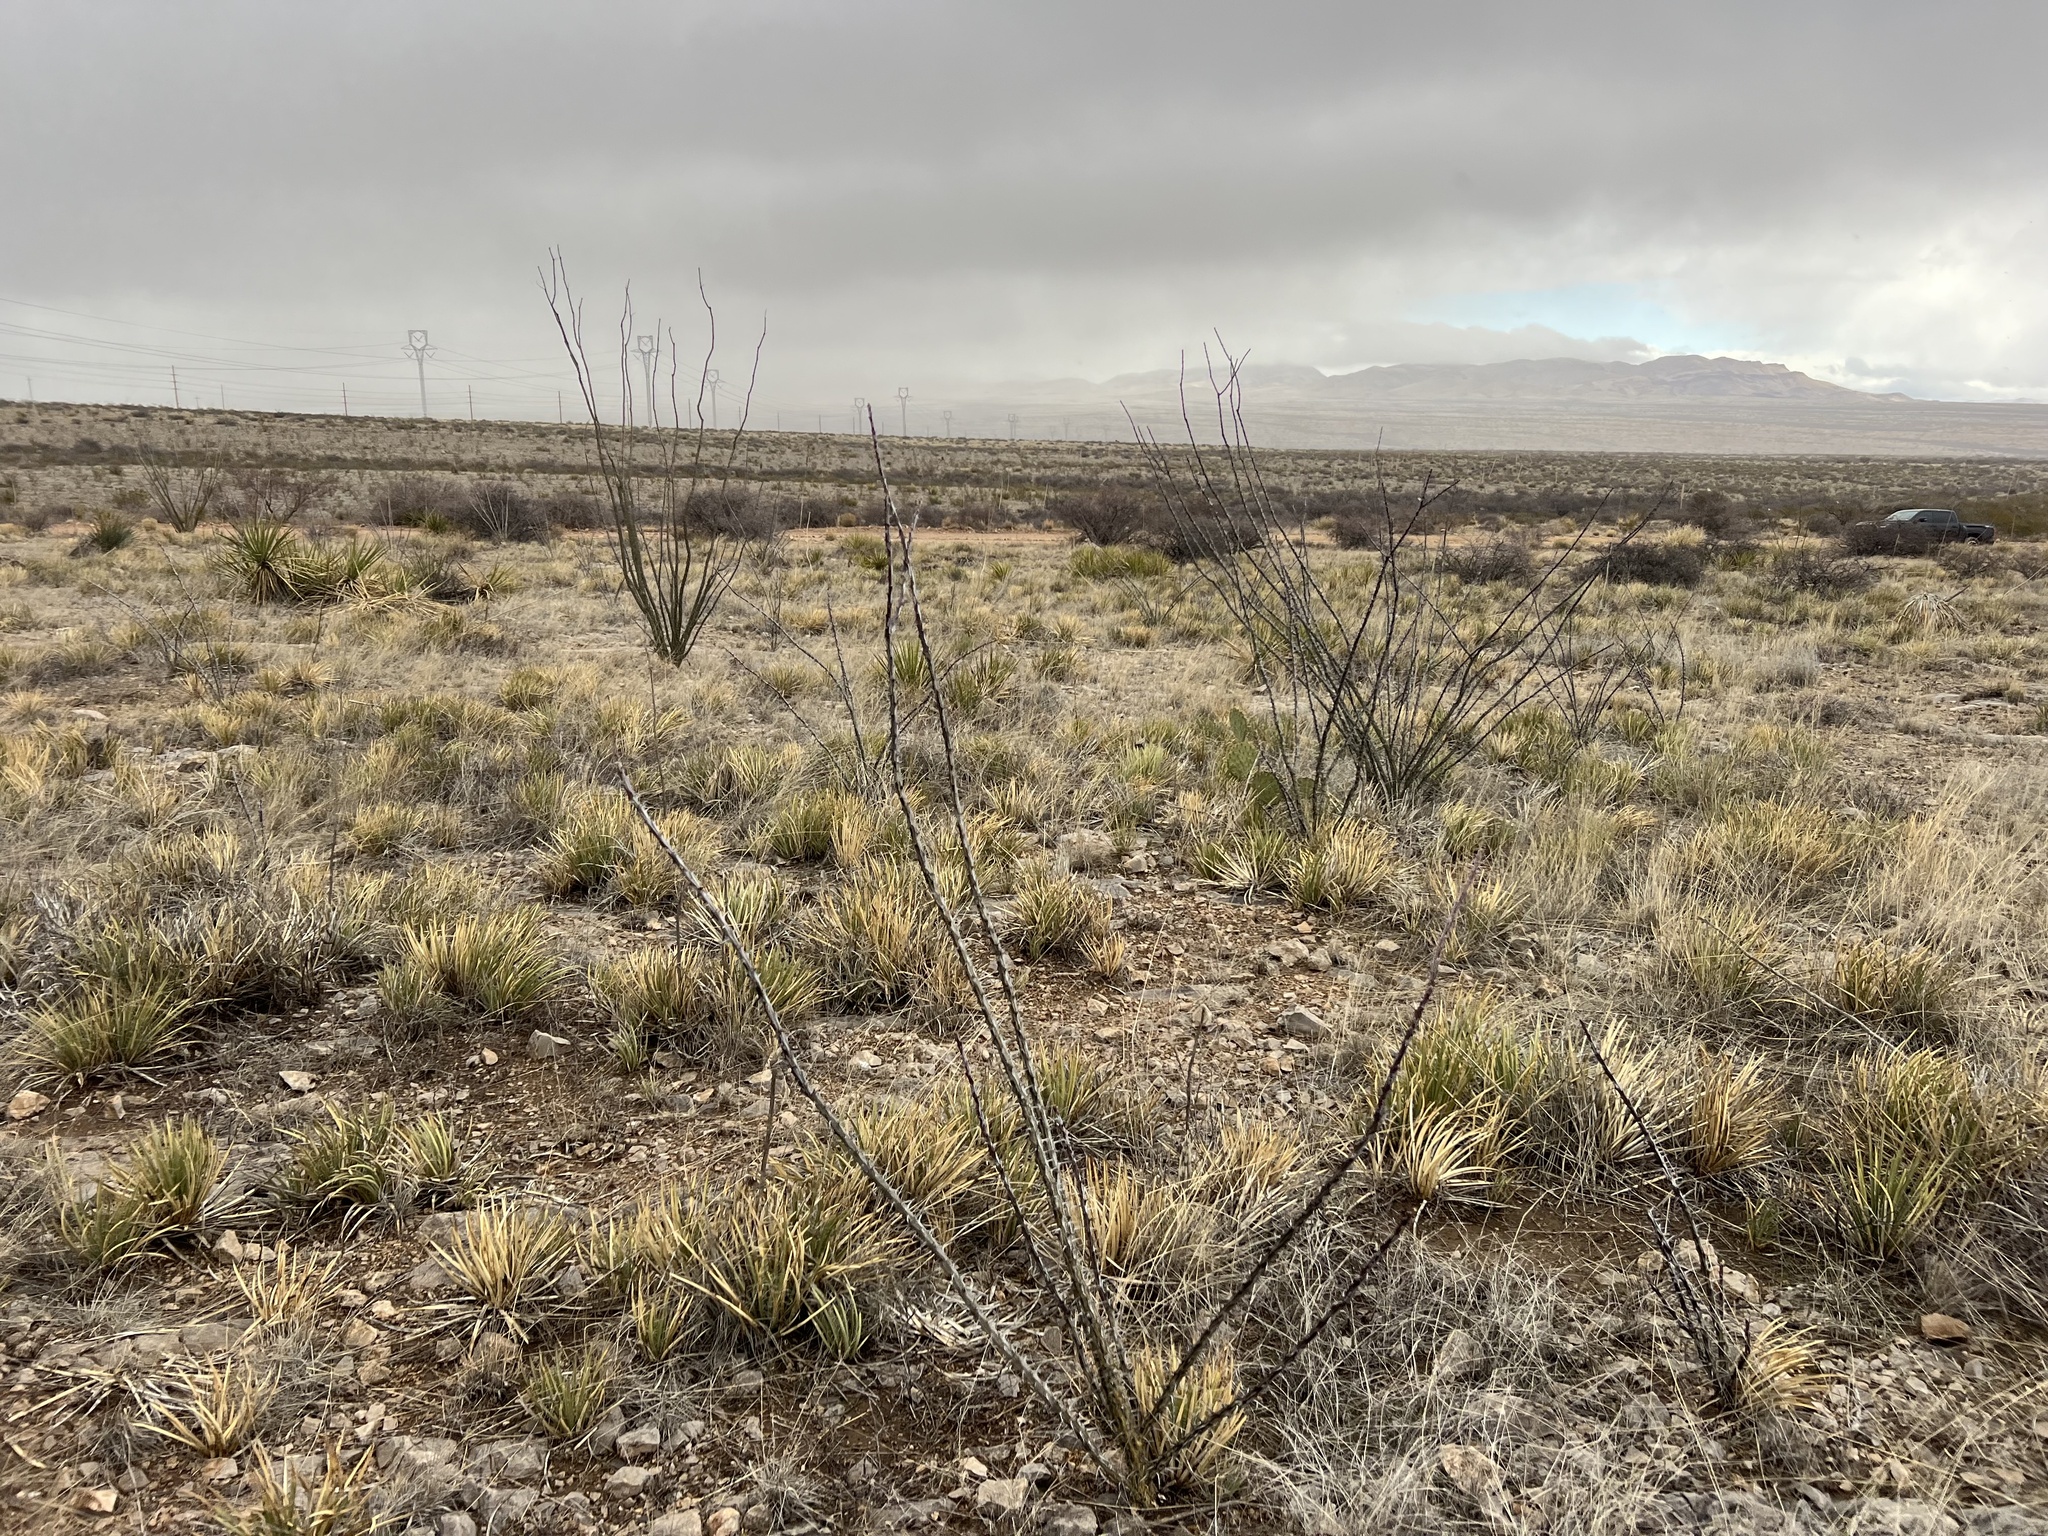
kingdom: Plantae
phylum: Tracheophyta
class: Magnoliopsida
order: Ericales
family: Fouquieriaceae
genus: Fouquieria
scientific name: Fouquieria splendens
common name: Vine-cactus
